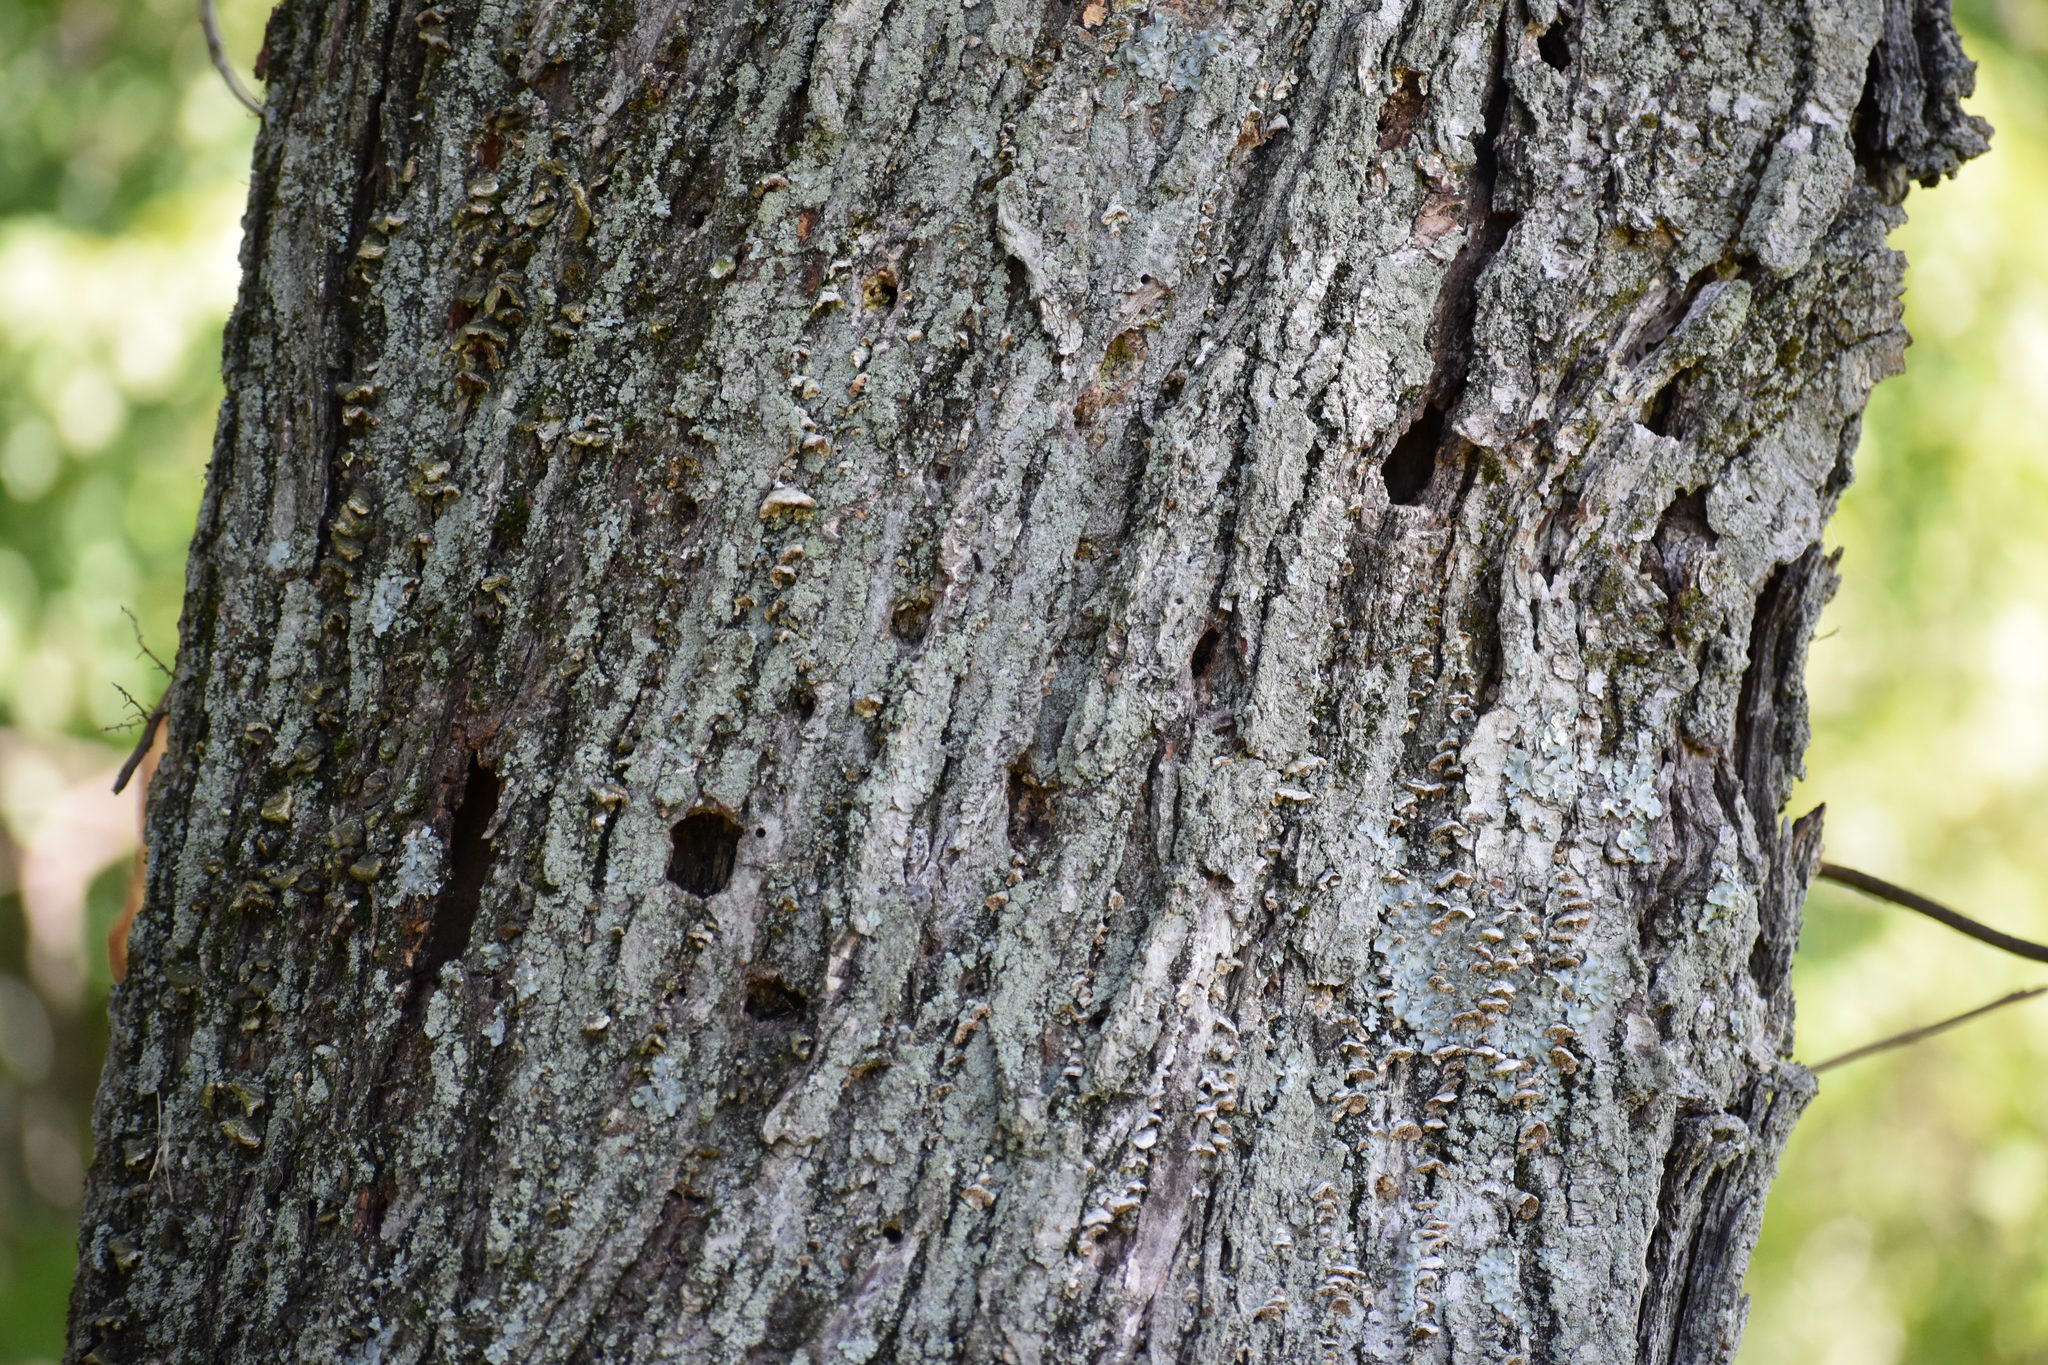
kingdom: Plantae
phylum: Tracheophyta
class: Magnoliopsida
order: Sapindales
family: Sapindaceae
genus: Acer
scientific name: Acer rubrum
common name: Red maple
